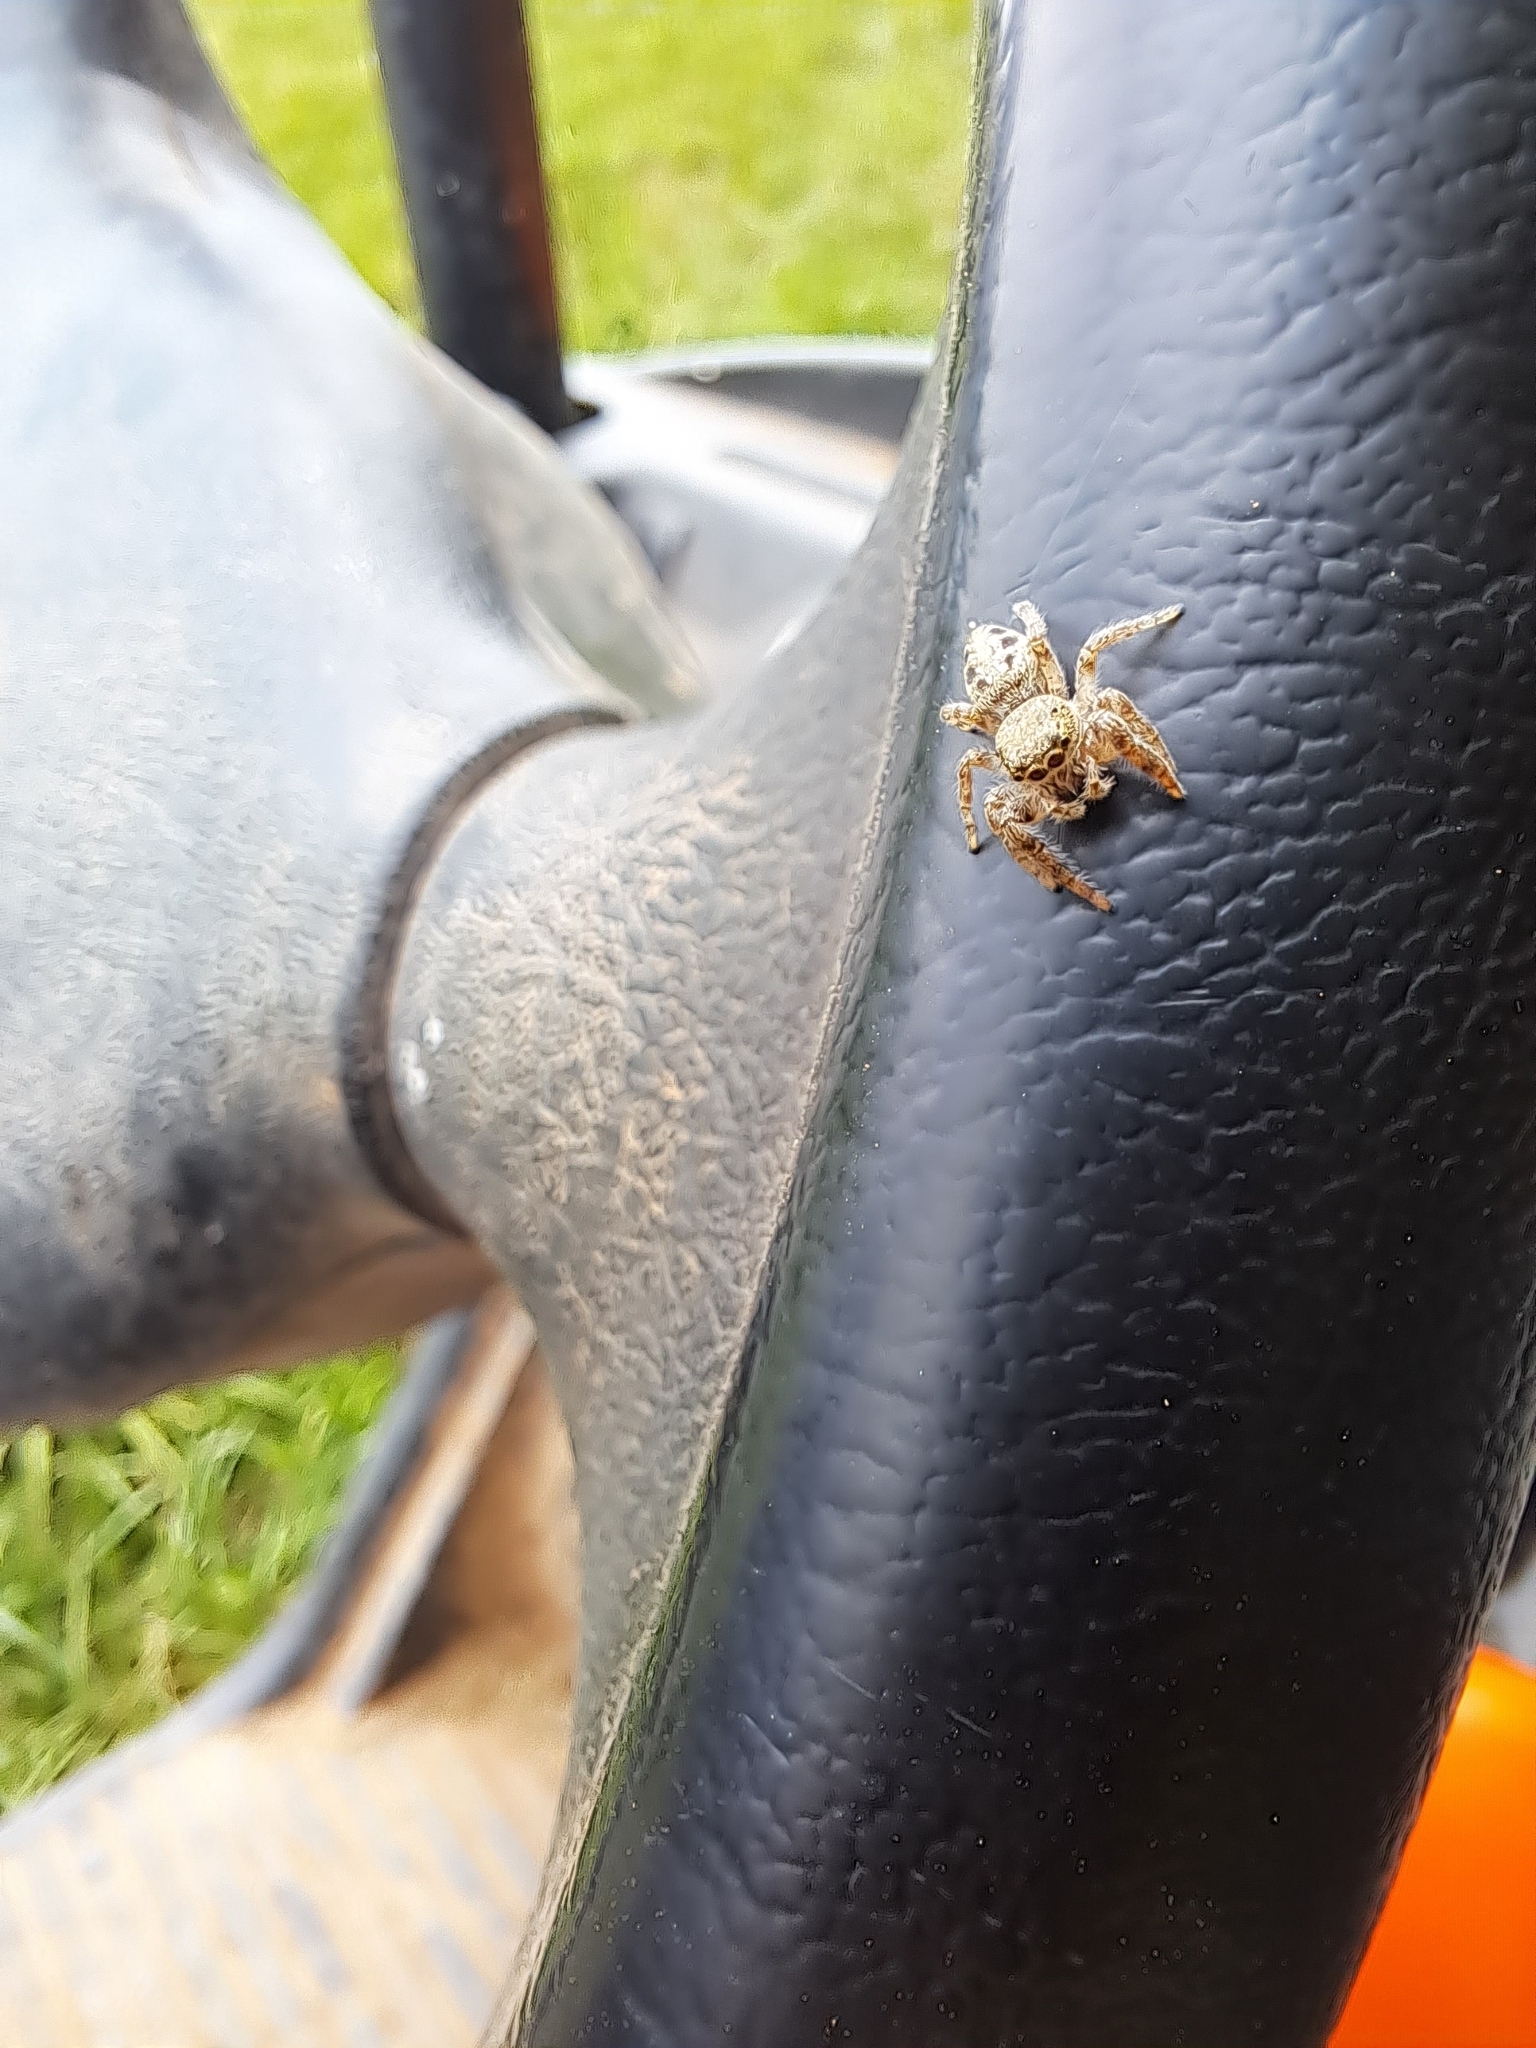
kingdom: Animalia
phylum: Arthropoda
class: Arachnida
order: Araneae
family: Salticidae
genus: Eris
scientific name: Eris militaris
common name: Bronze jumper
